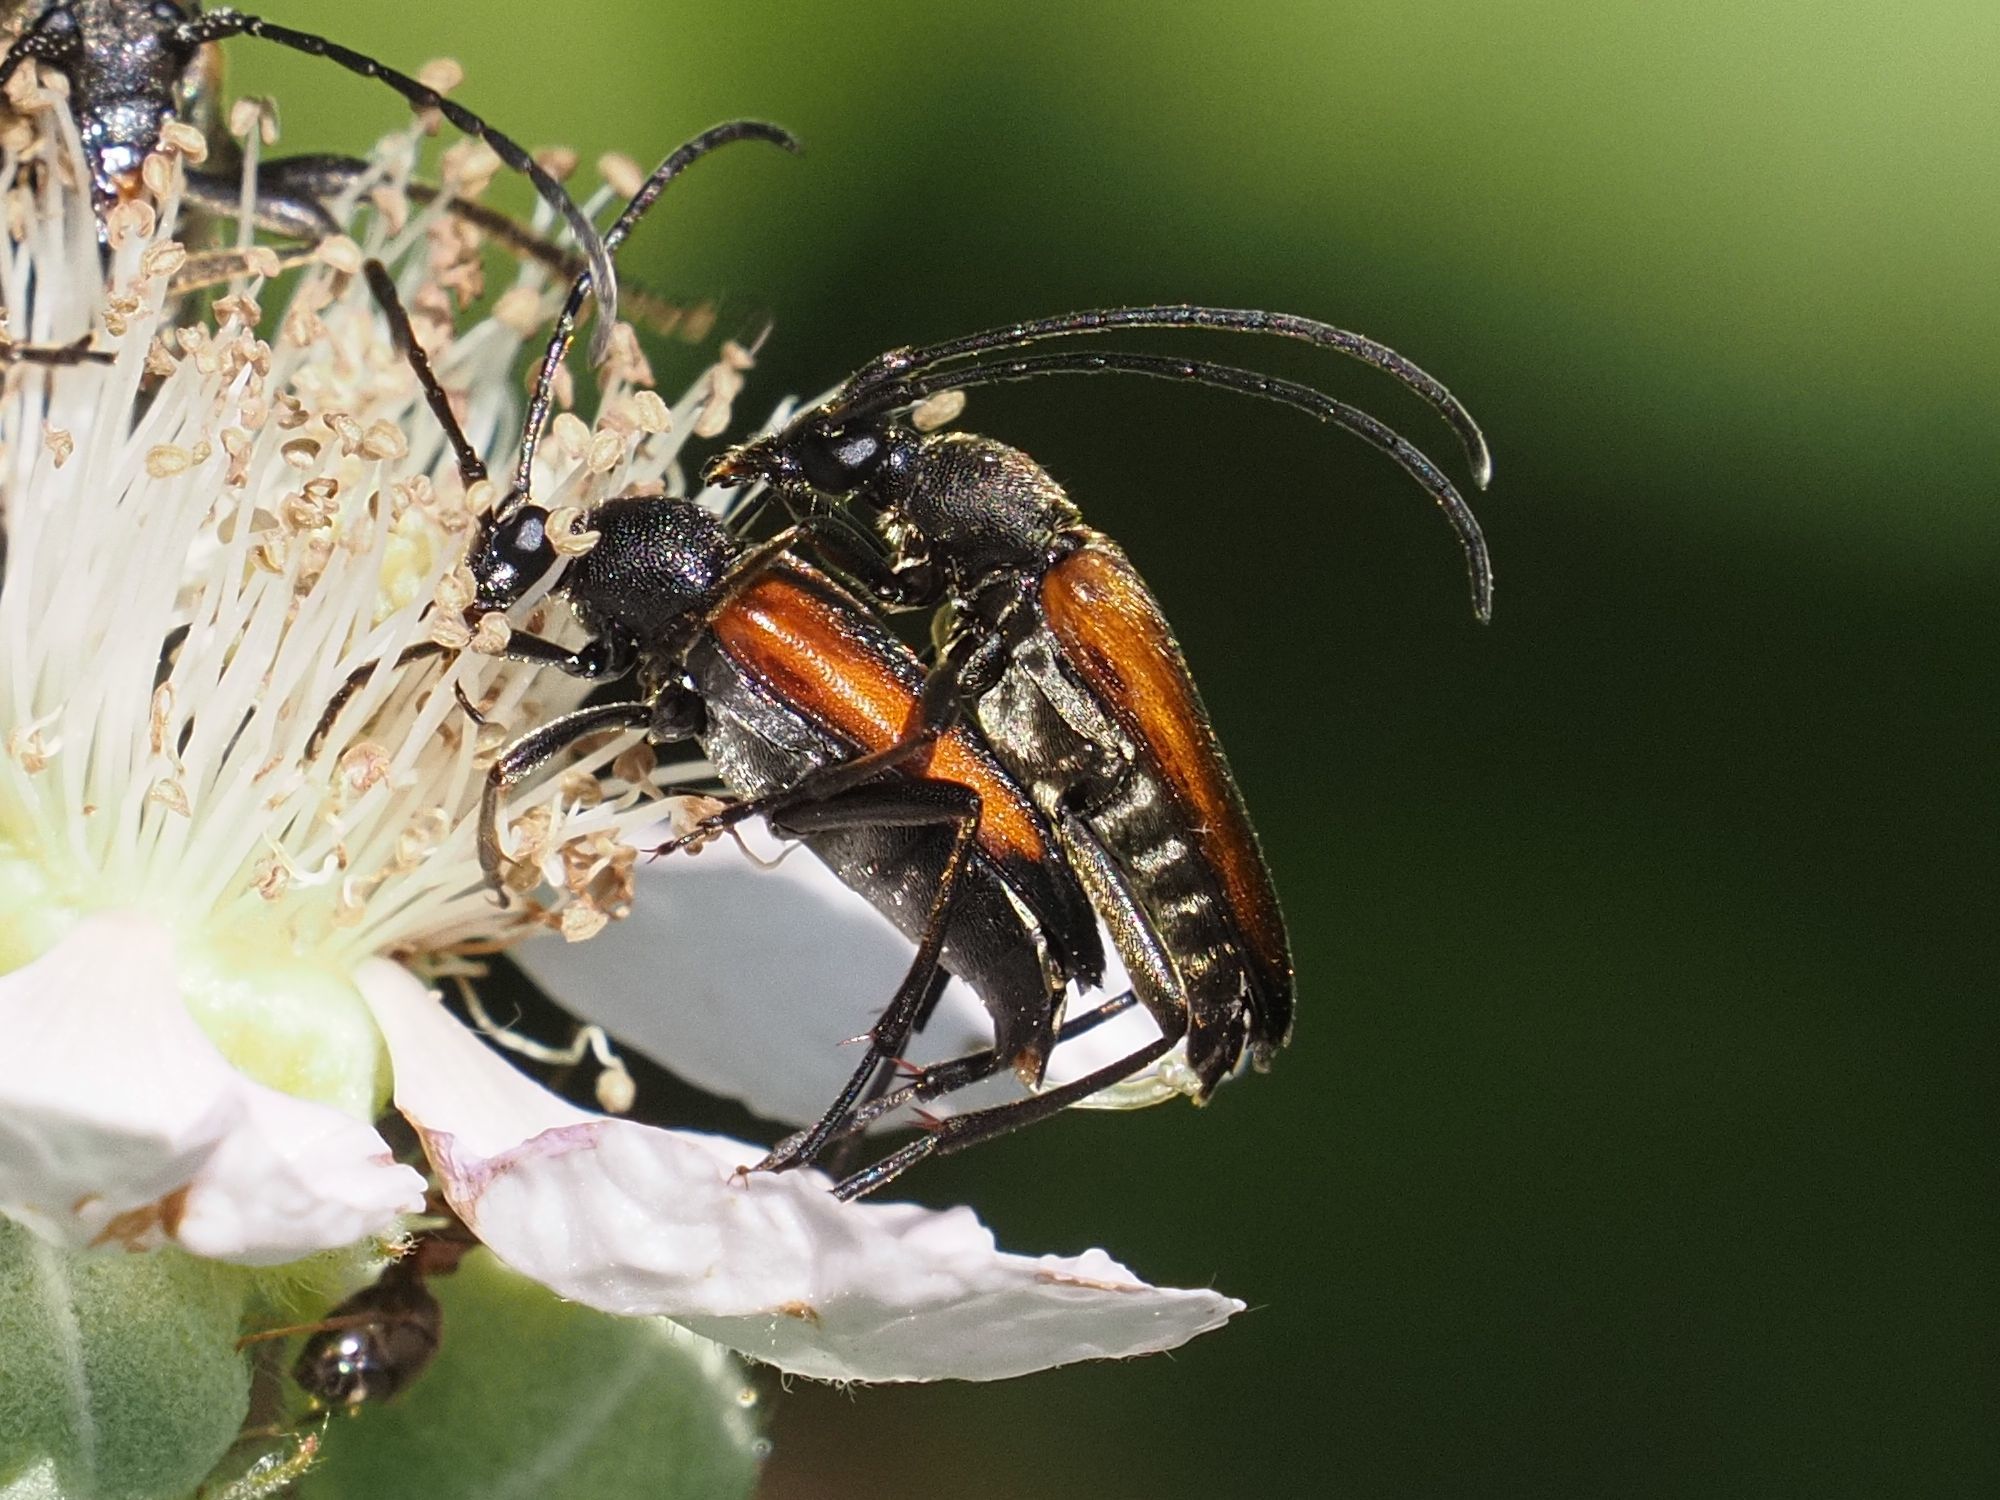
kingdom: Animalia
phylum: Arthropoda
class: Insecta
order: Coleoptera
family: Cerambycidae
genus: Stenurella
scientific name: Stenurella melanura
